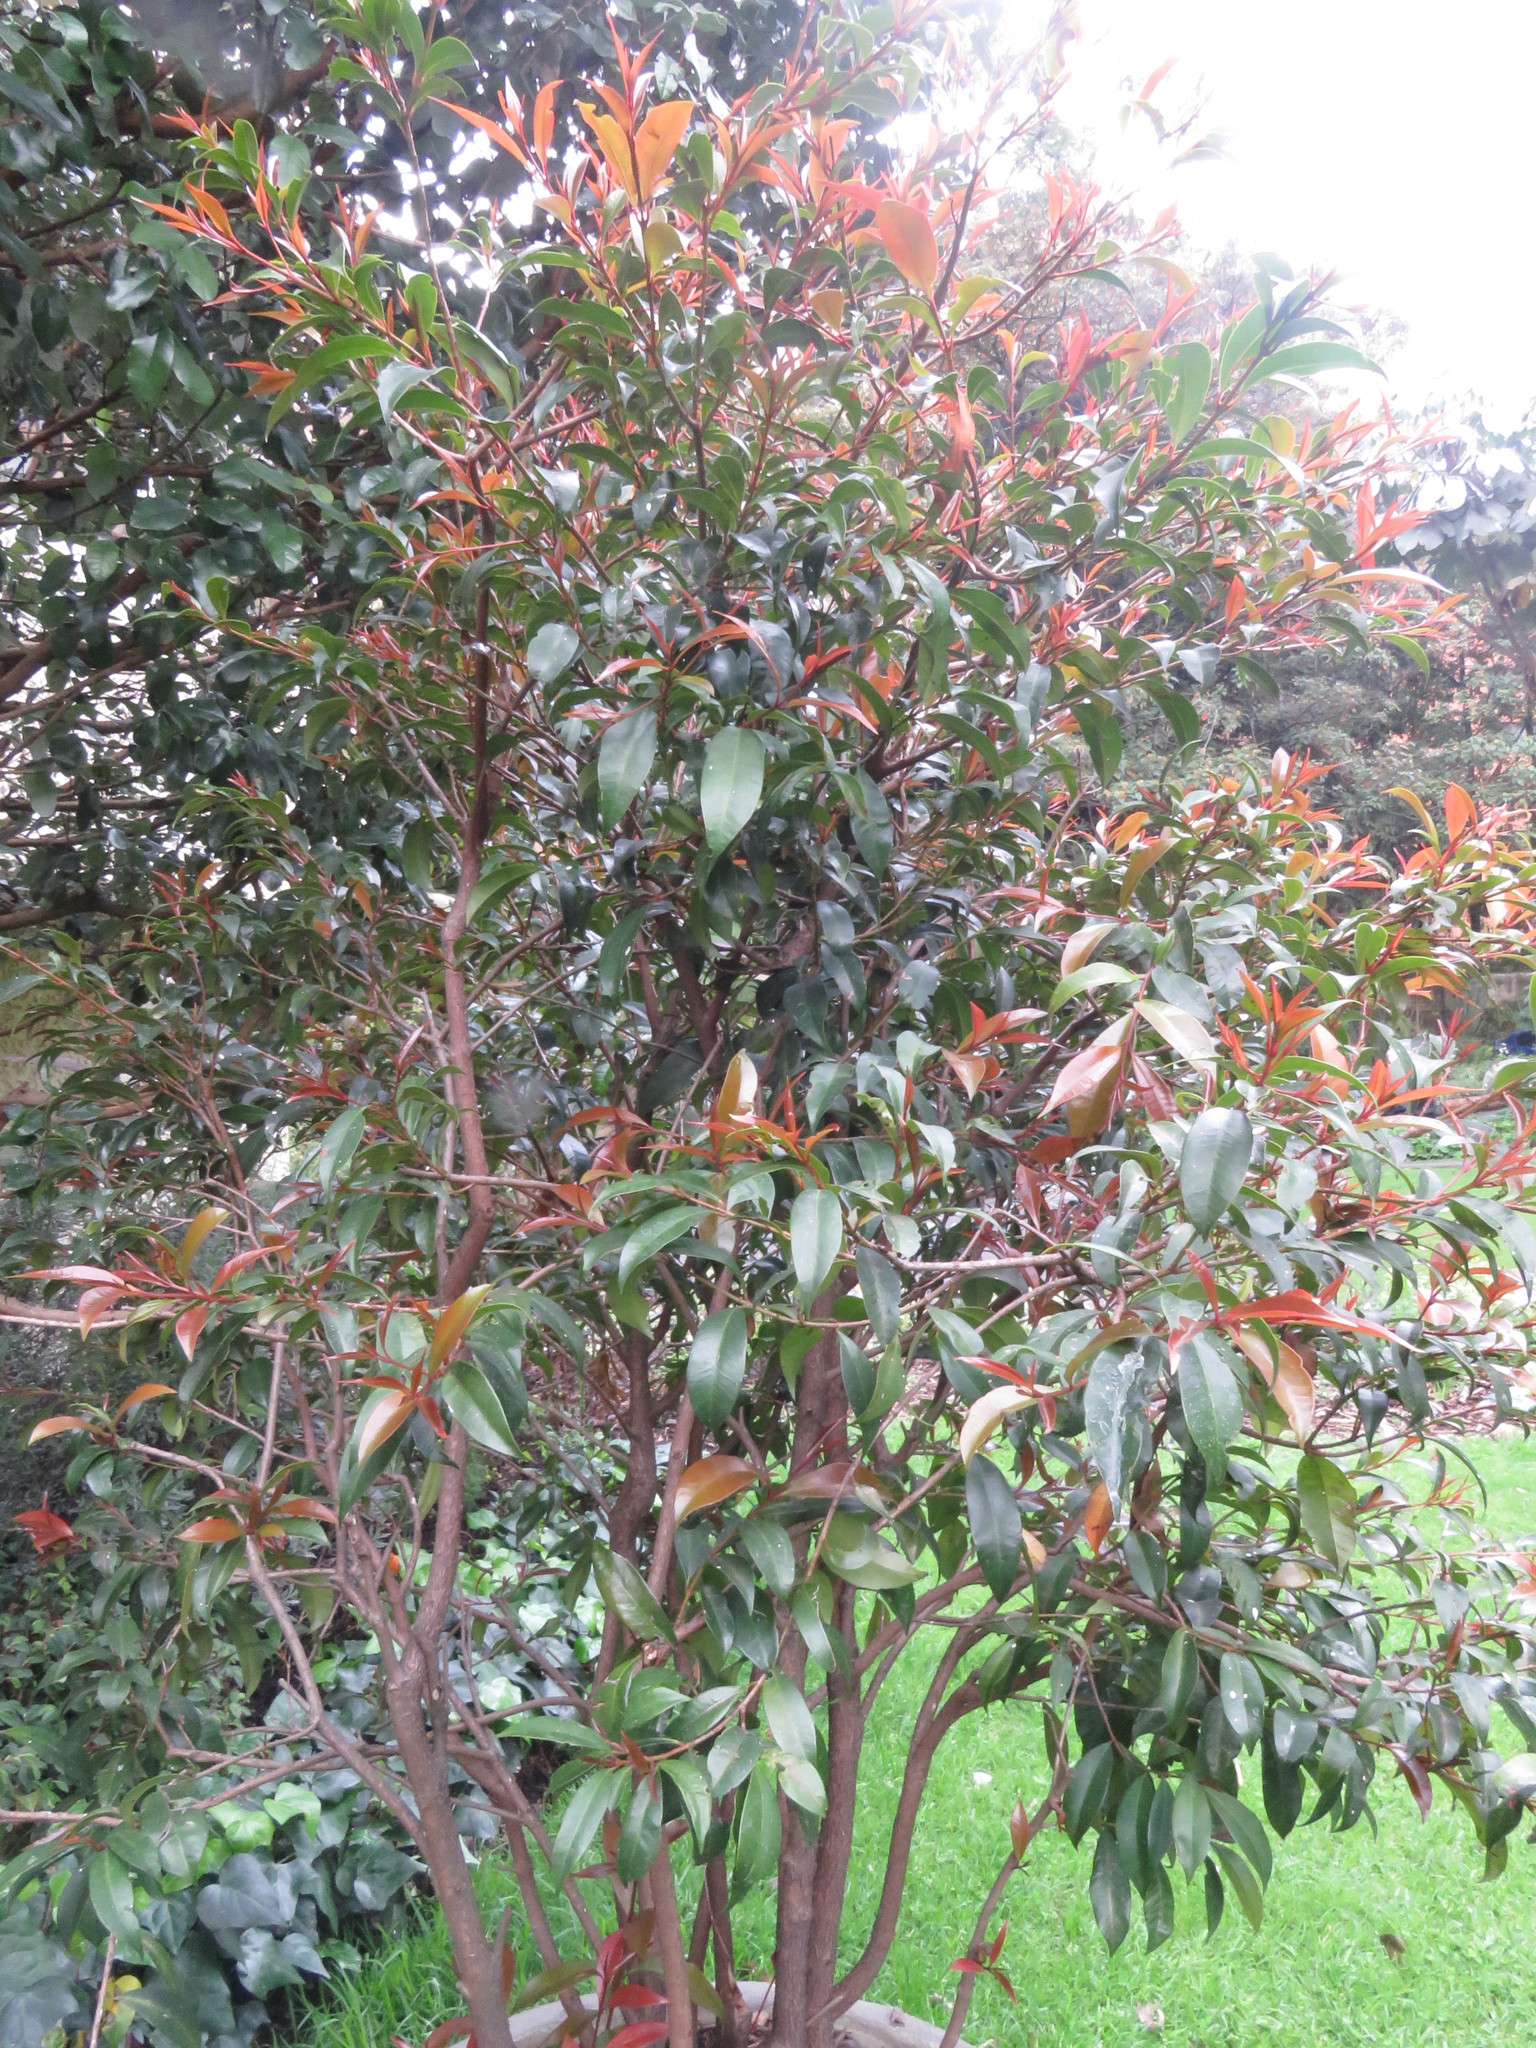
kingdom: Plantae
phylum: Tracheophyta
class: Magnoliopsida
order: Myrtales
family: Myrtaceae
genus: Syzygium
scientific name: Syzygium paniculatum
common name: Magenta lilly-pilly
